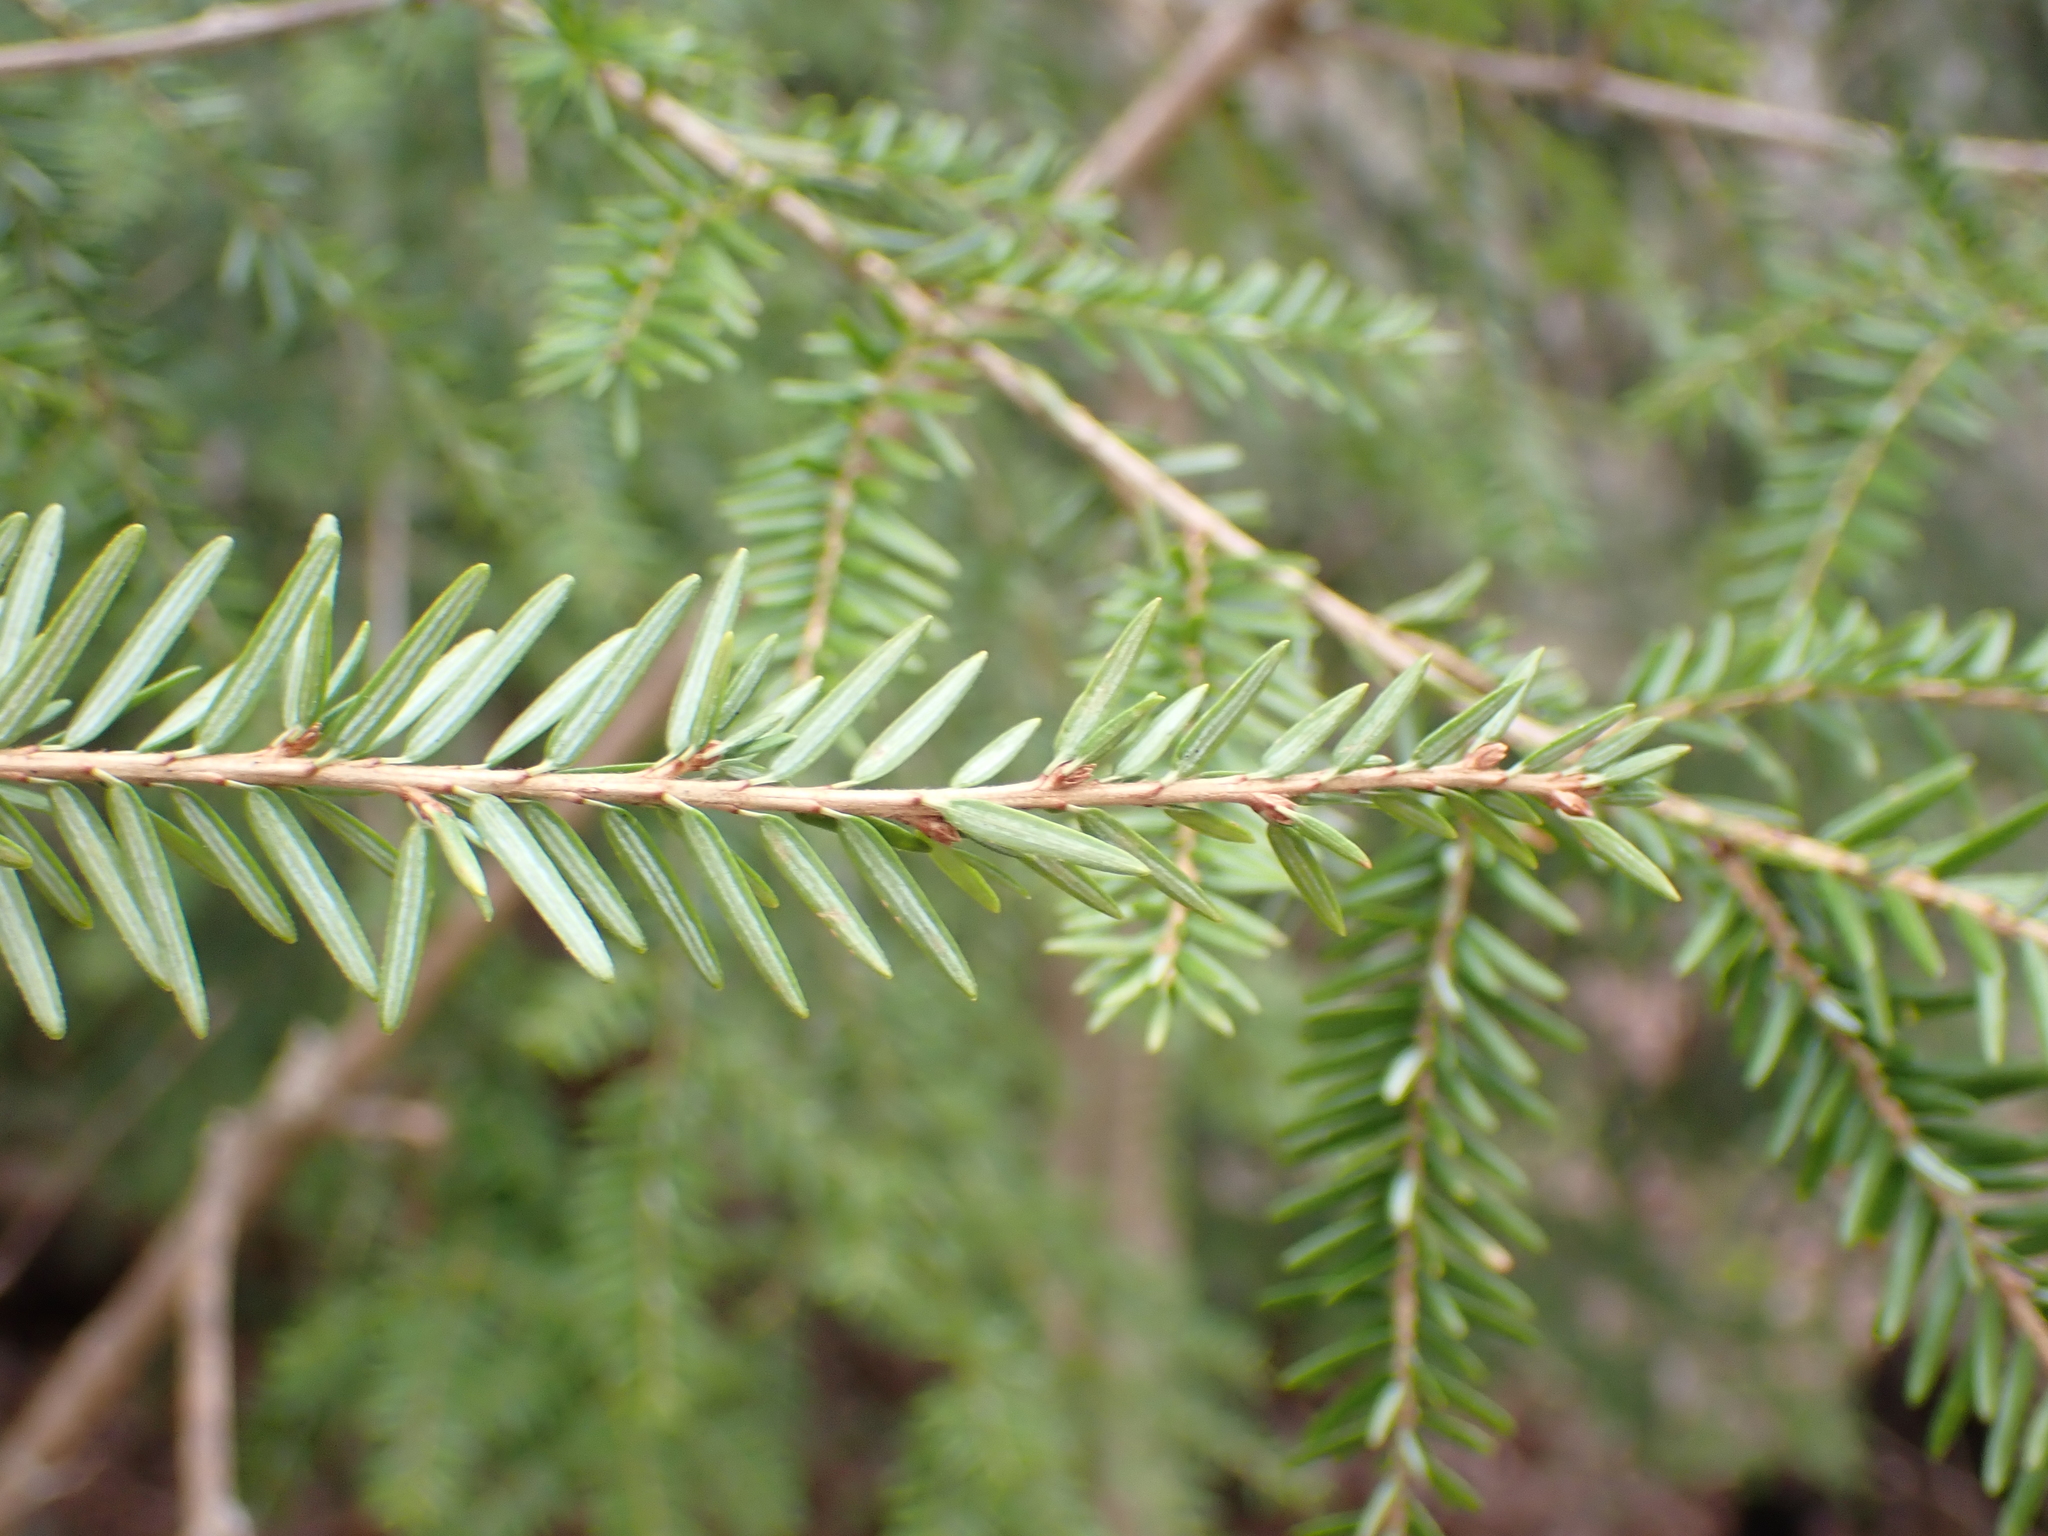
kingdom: Plantae
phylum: Tracheophyta
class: Pinopsida
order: Pinales
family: Pinaceae
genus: Tsuga
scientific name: Tsuga canadensis
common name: Eastern hemlock
